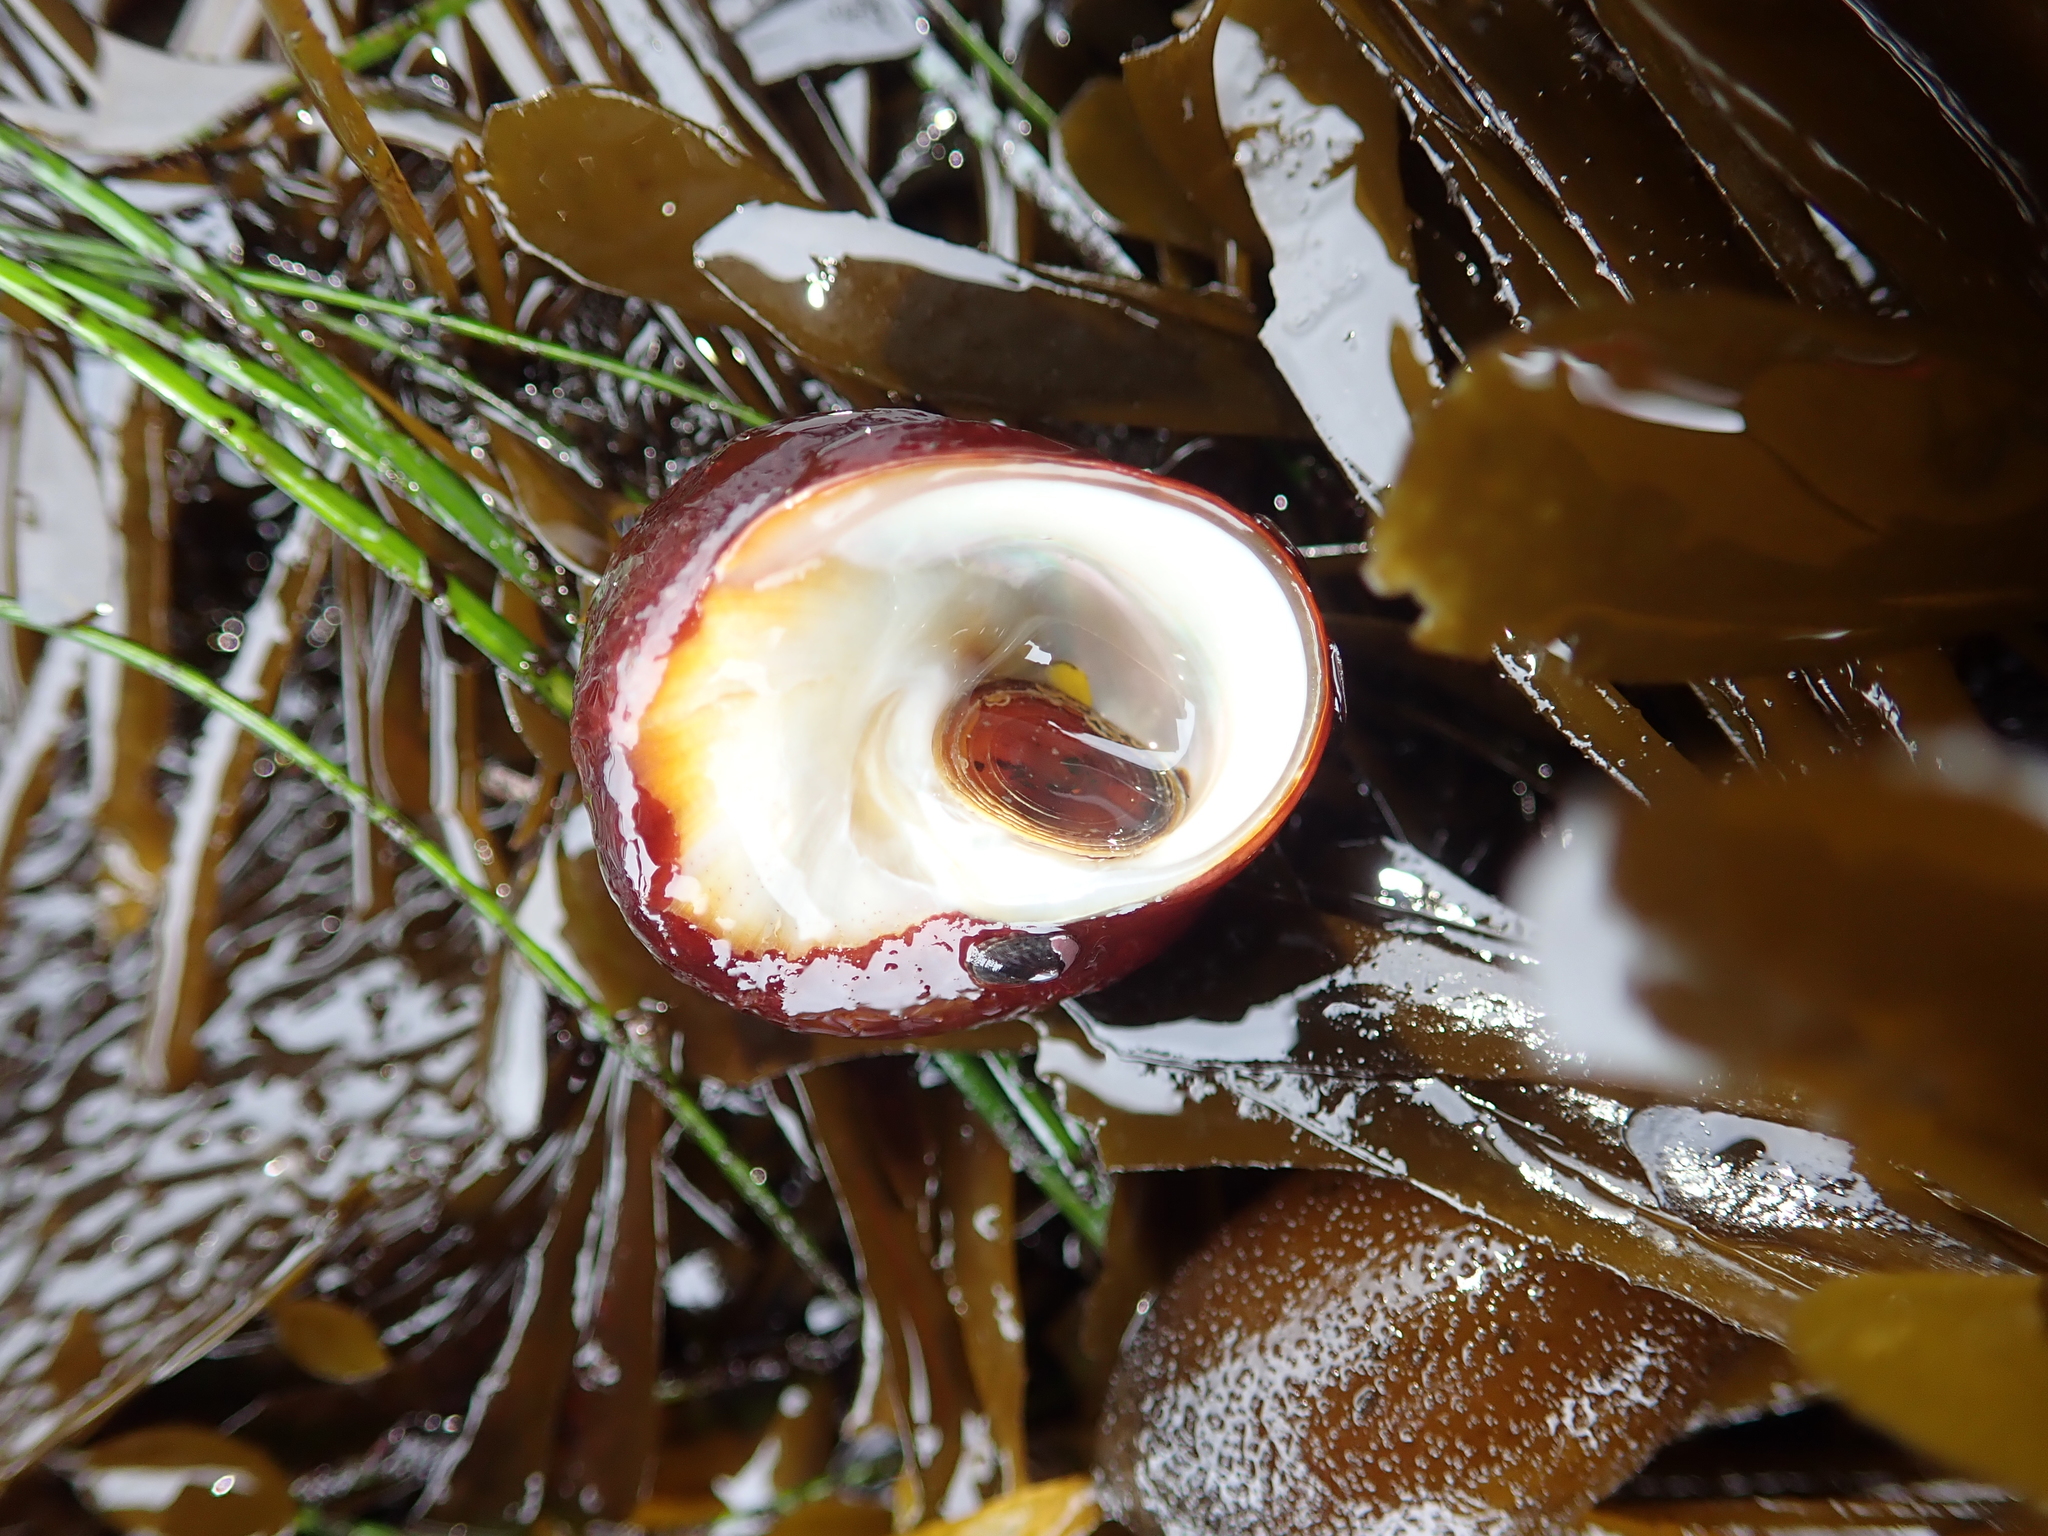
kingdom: Animalia
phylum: Mollusca
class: Gastropoda
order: Trochida
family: Tegulidae
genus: Tegula
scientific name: Tegula brunnea
